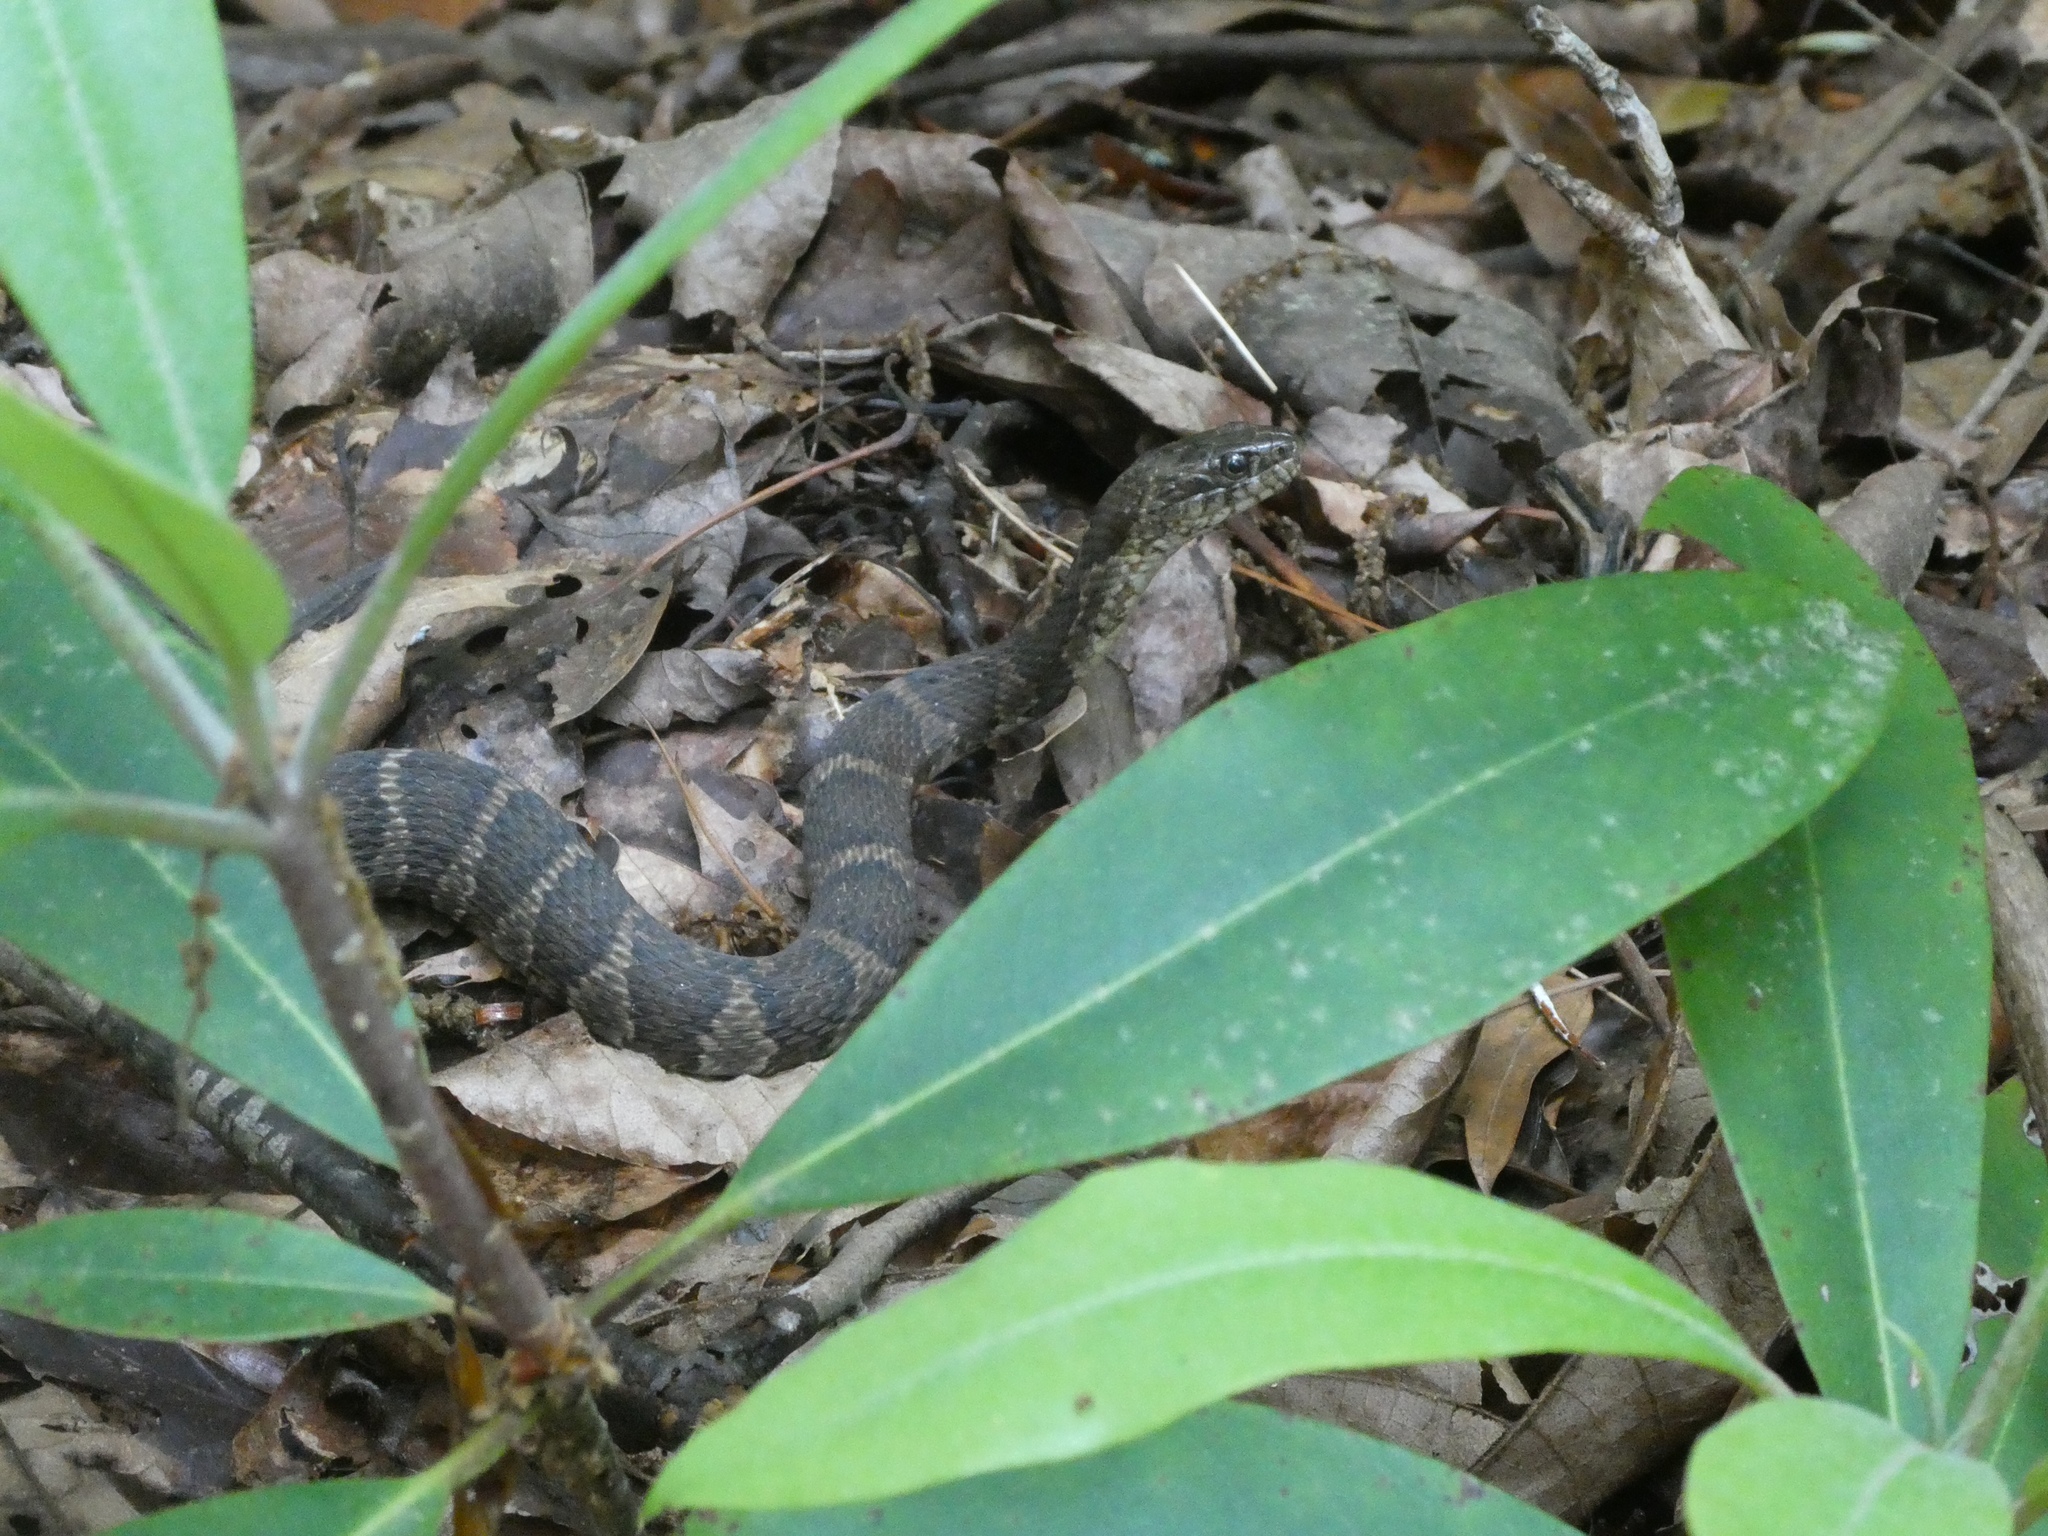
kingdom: Animalia
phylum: Chordata
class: Squamata
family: Colubridae
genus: Nerodia
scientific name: Nerodia sipedon
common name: Northern water snake
